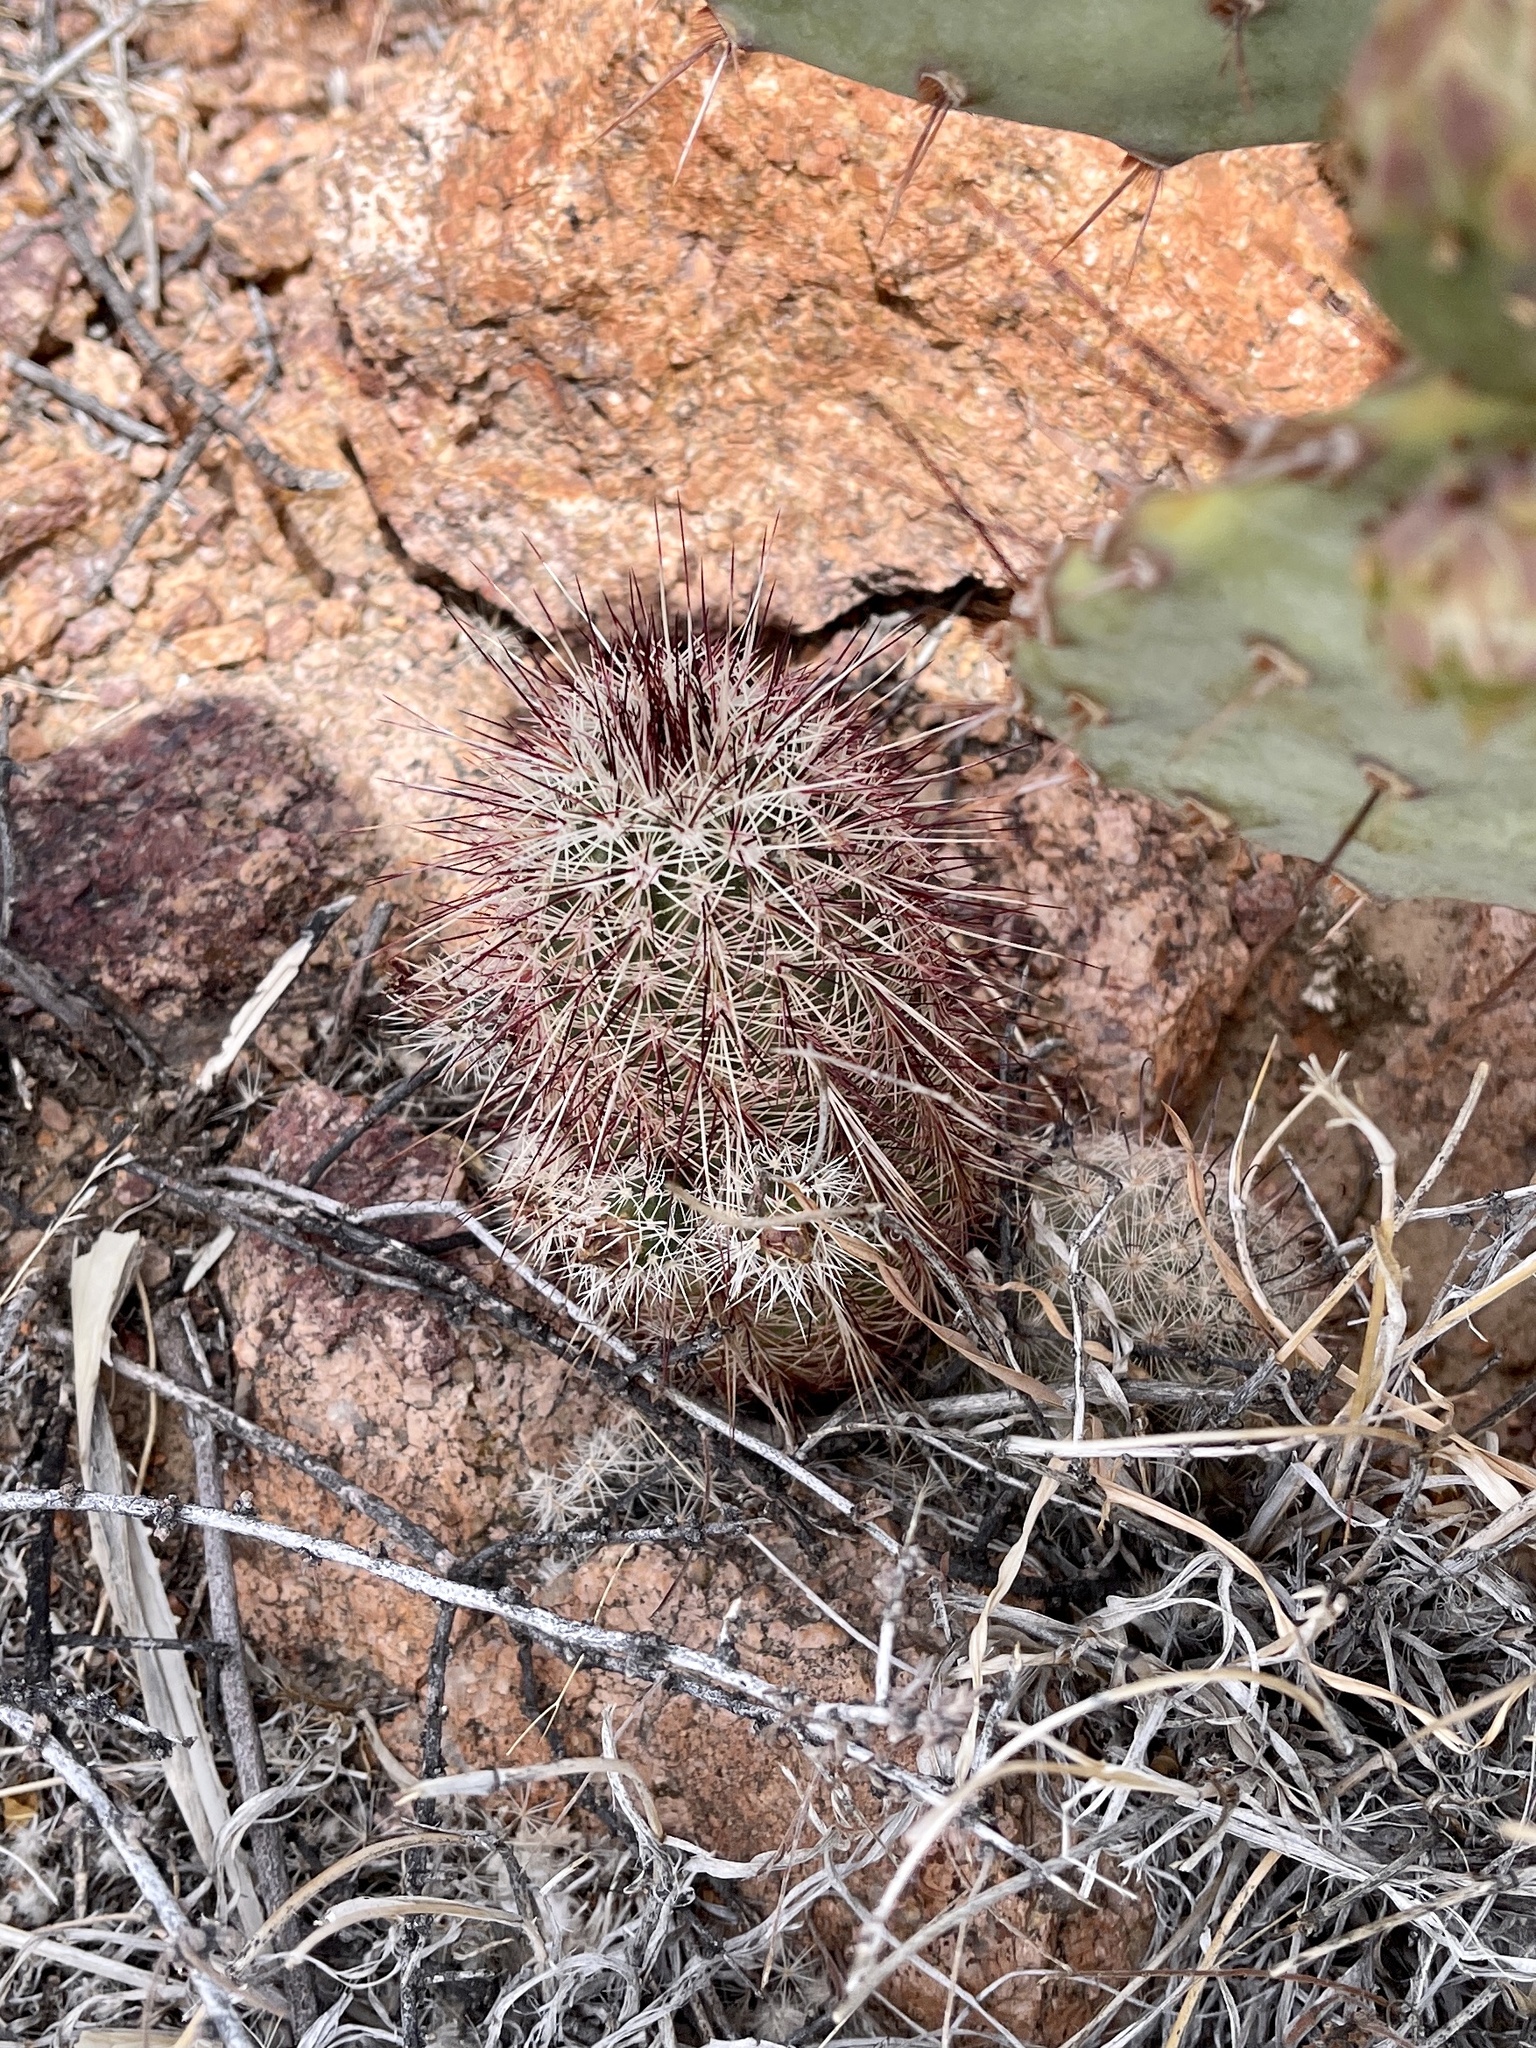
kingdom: Plantae
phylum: Tracheophyta
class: Magnoliopsida
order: Caryophyllales
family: Cactaceae
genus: Echinocereus
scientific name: Echinocereus viridiflorus
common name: Nylon hedgehog cactus
